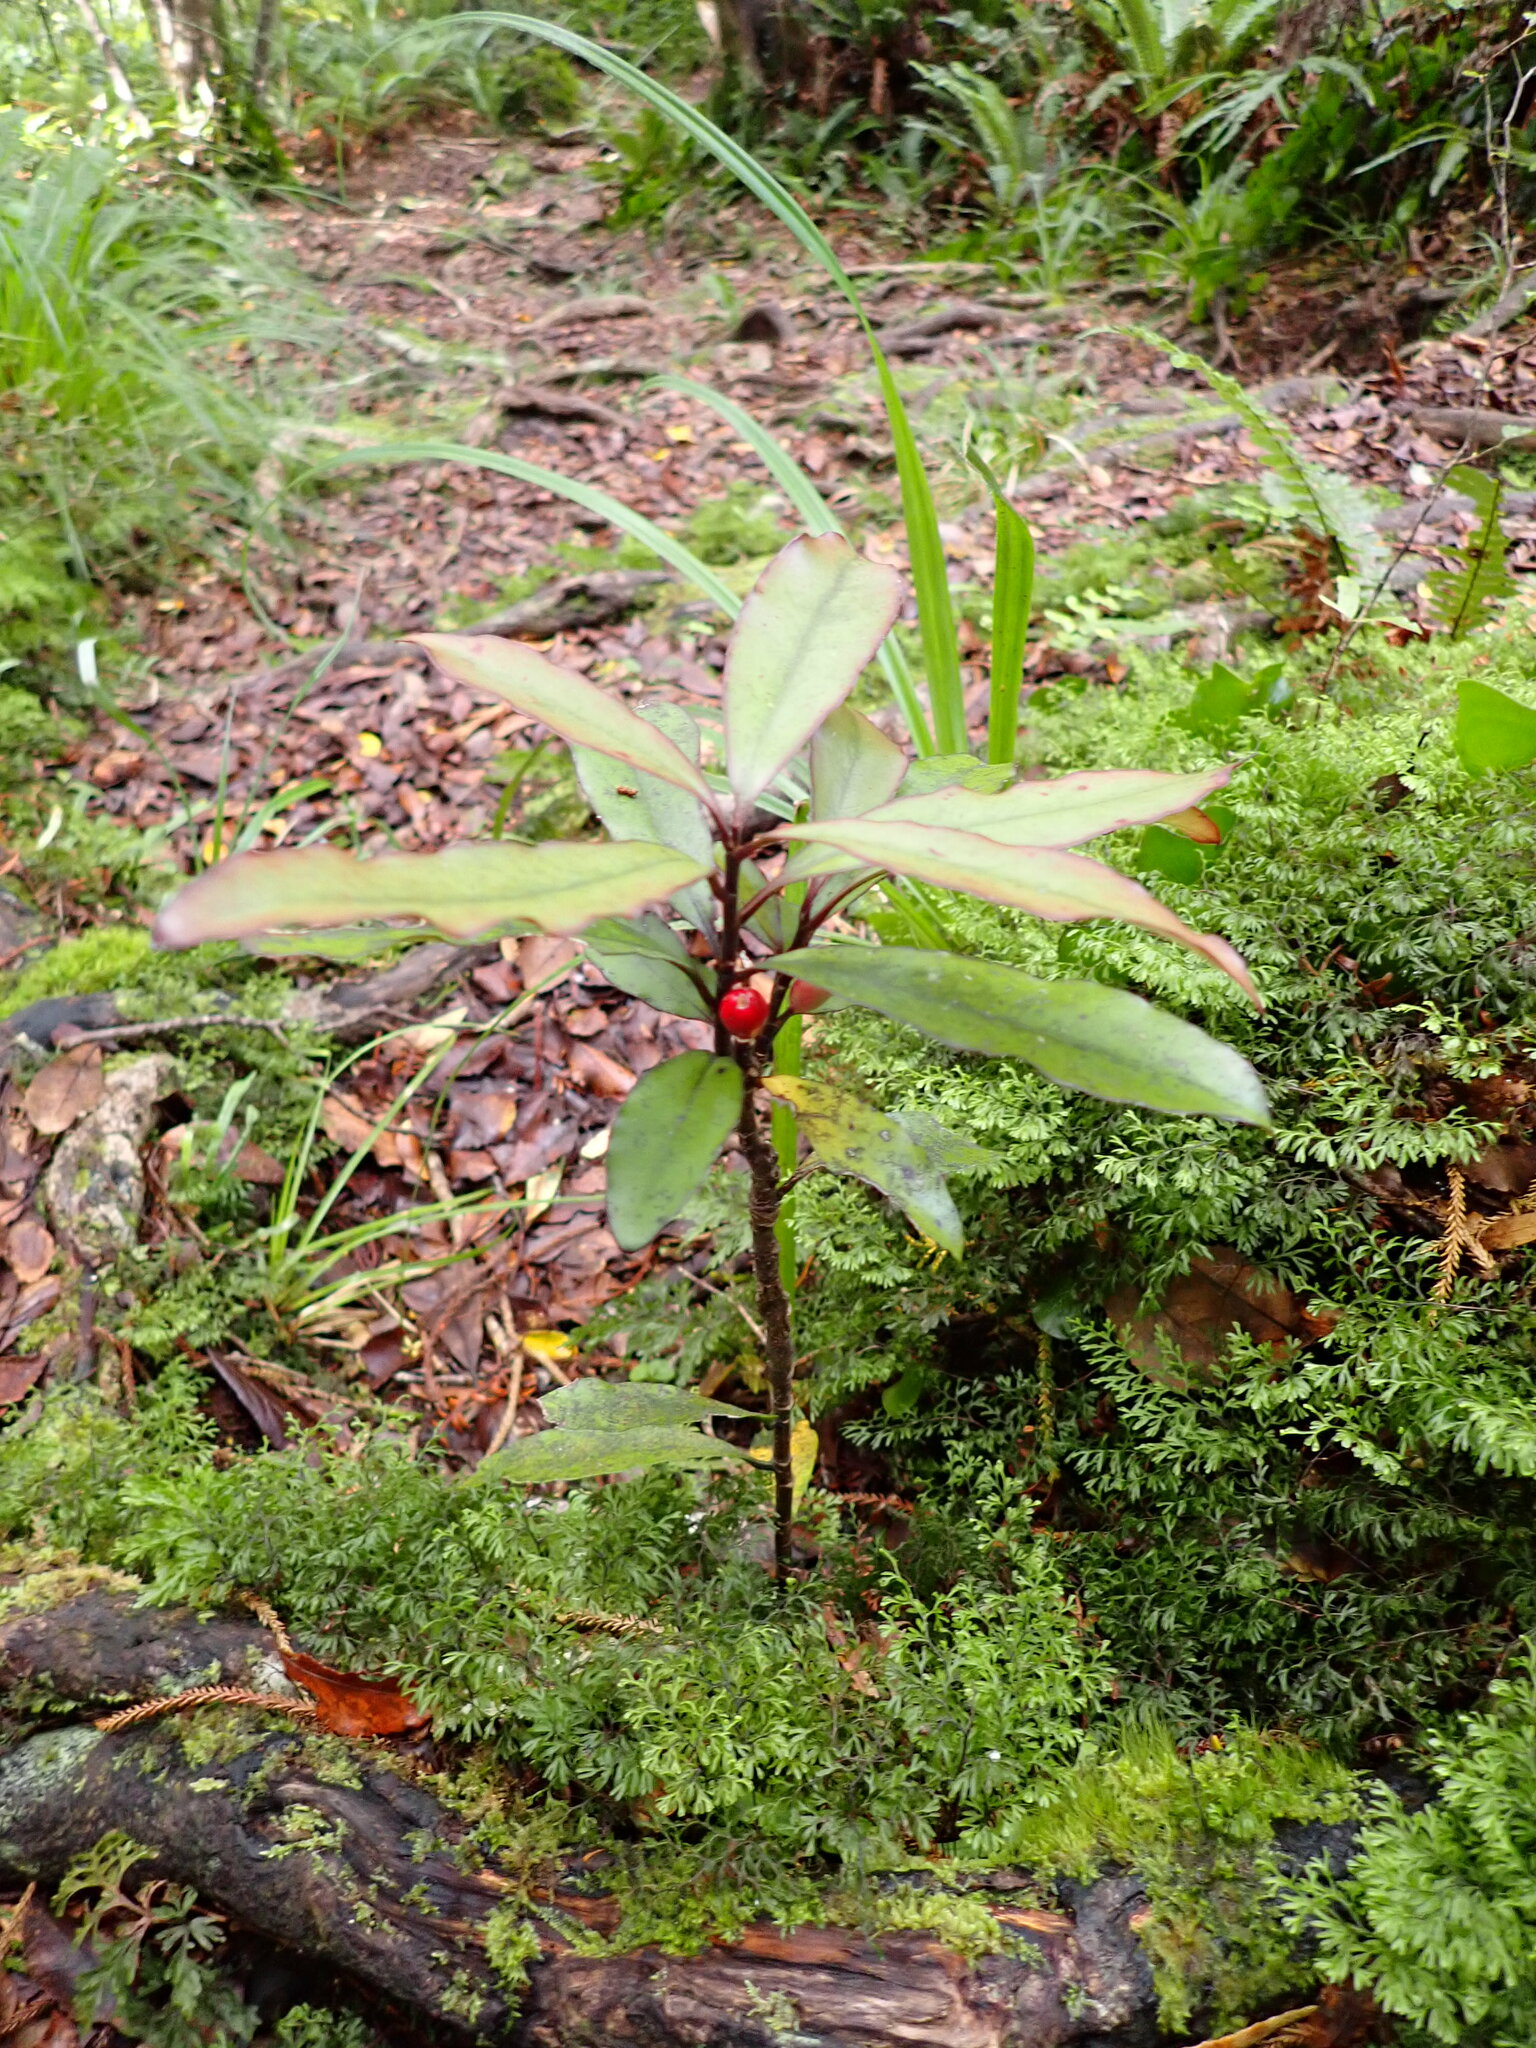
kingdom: Plantae
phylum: Tracheophyta
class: Magnoliopsida
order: Asterales
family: Alseuosmiaceae
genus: Alseuosmia
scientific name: Alseuosmia pusilla
